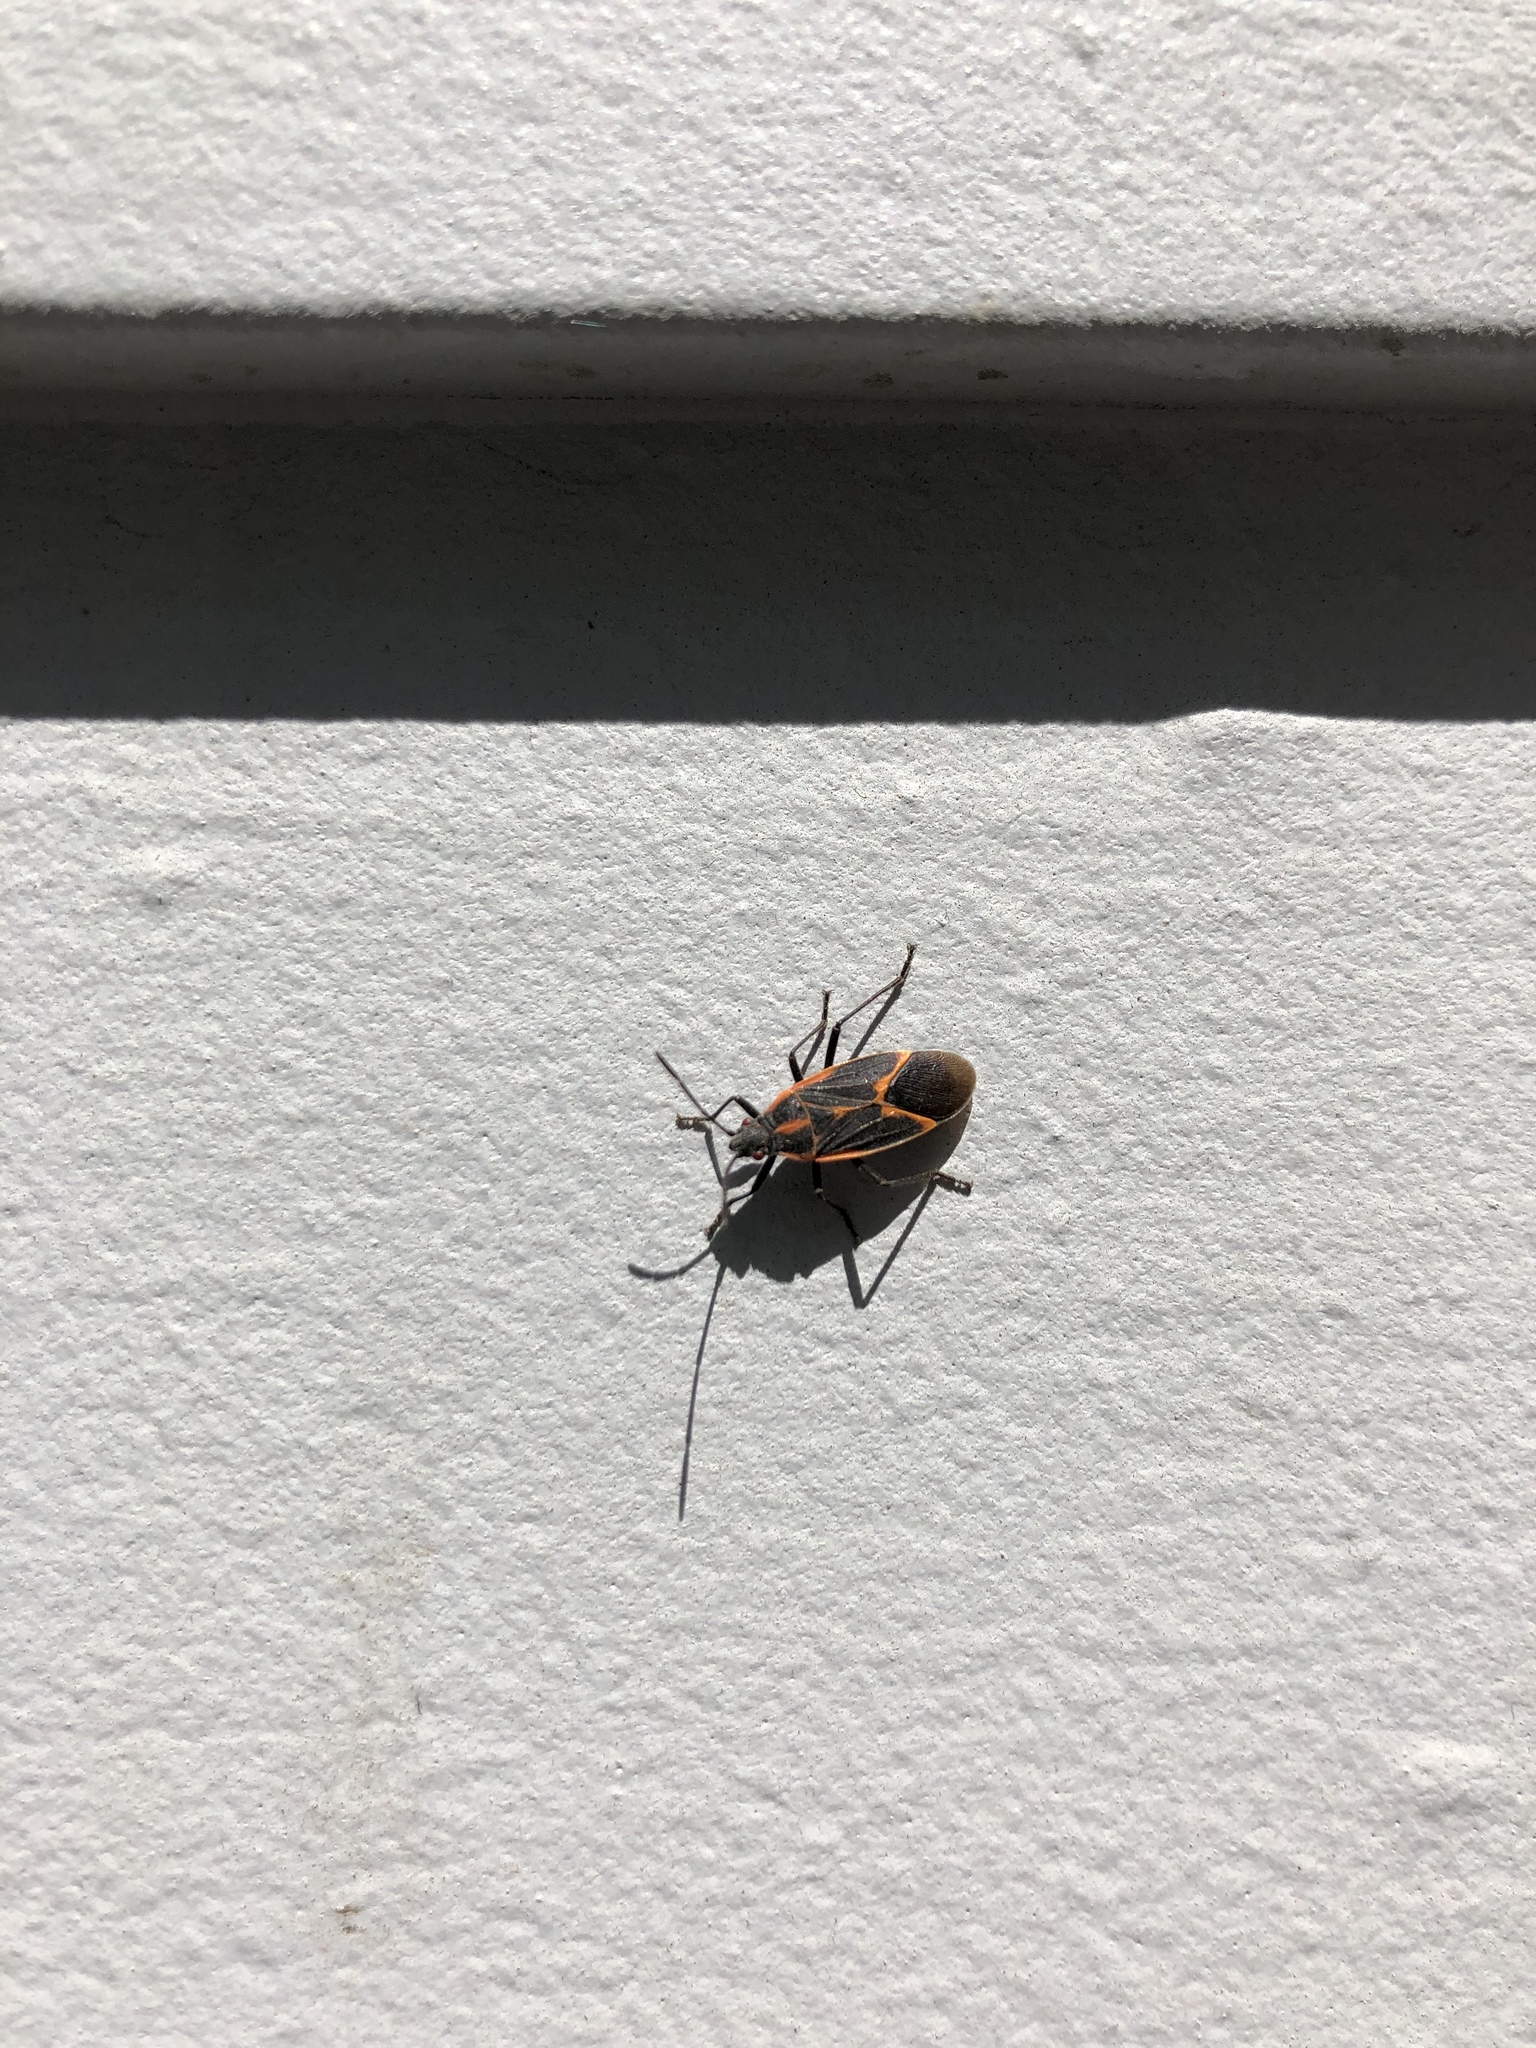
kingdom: Animalia
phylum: Arthropoda
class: Insecta
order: Hemiptera
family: Rhopalidae
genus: Boisea
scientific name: Boisea trivittata
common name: Boxelder bug
